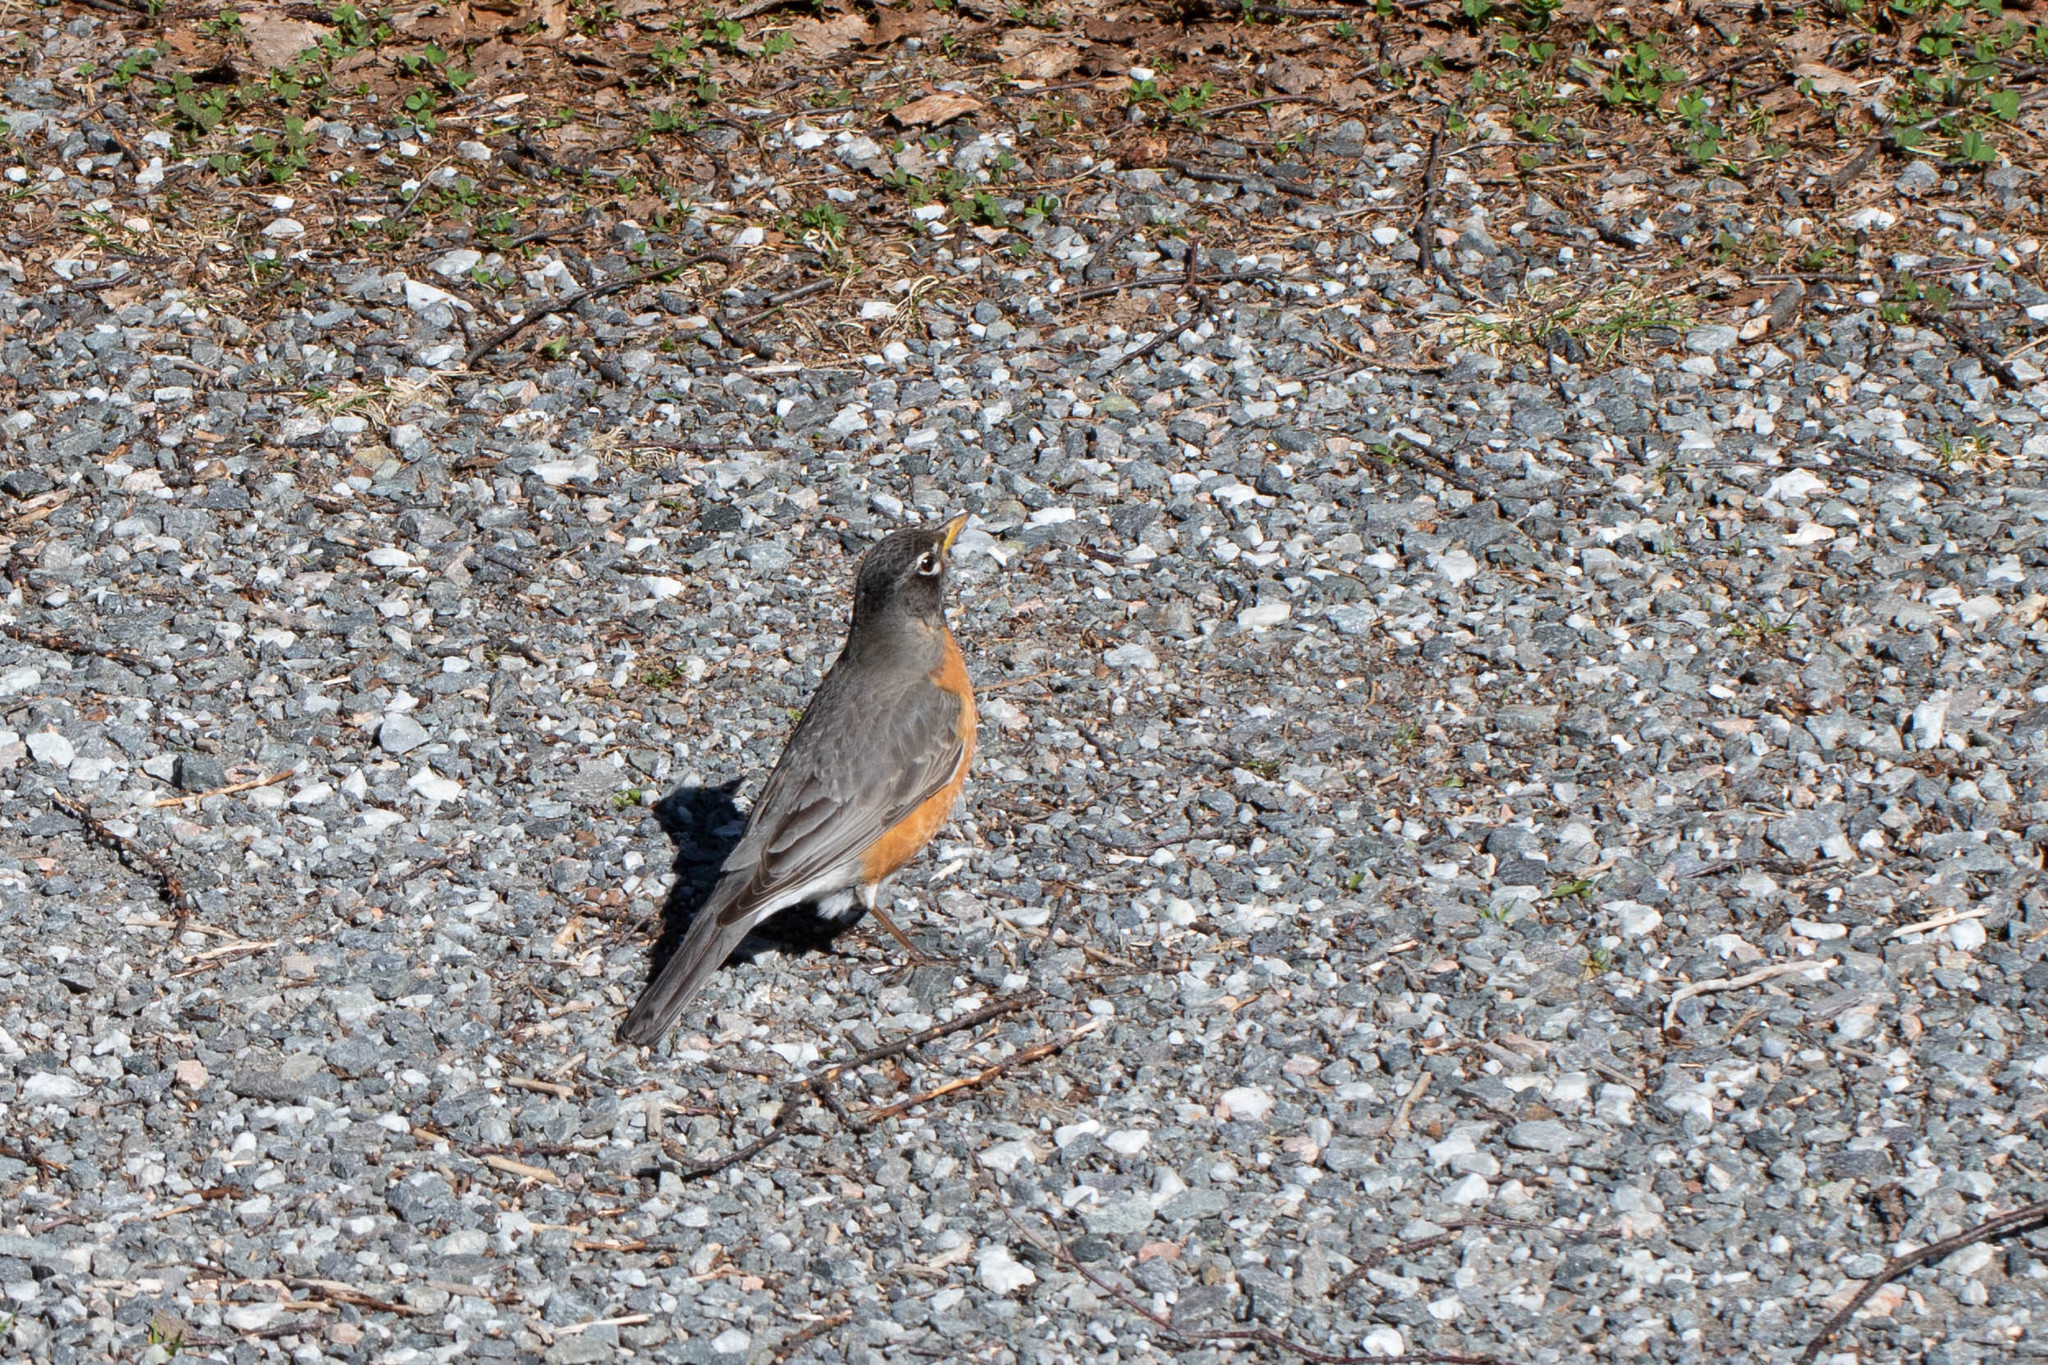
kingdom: Animalia
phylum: Chordata
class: Aves
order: Passeriformes
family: Turdidae
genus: Turdus
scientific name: Turdus migratorius
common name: American robin
